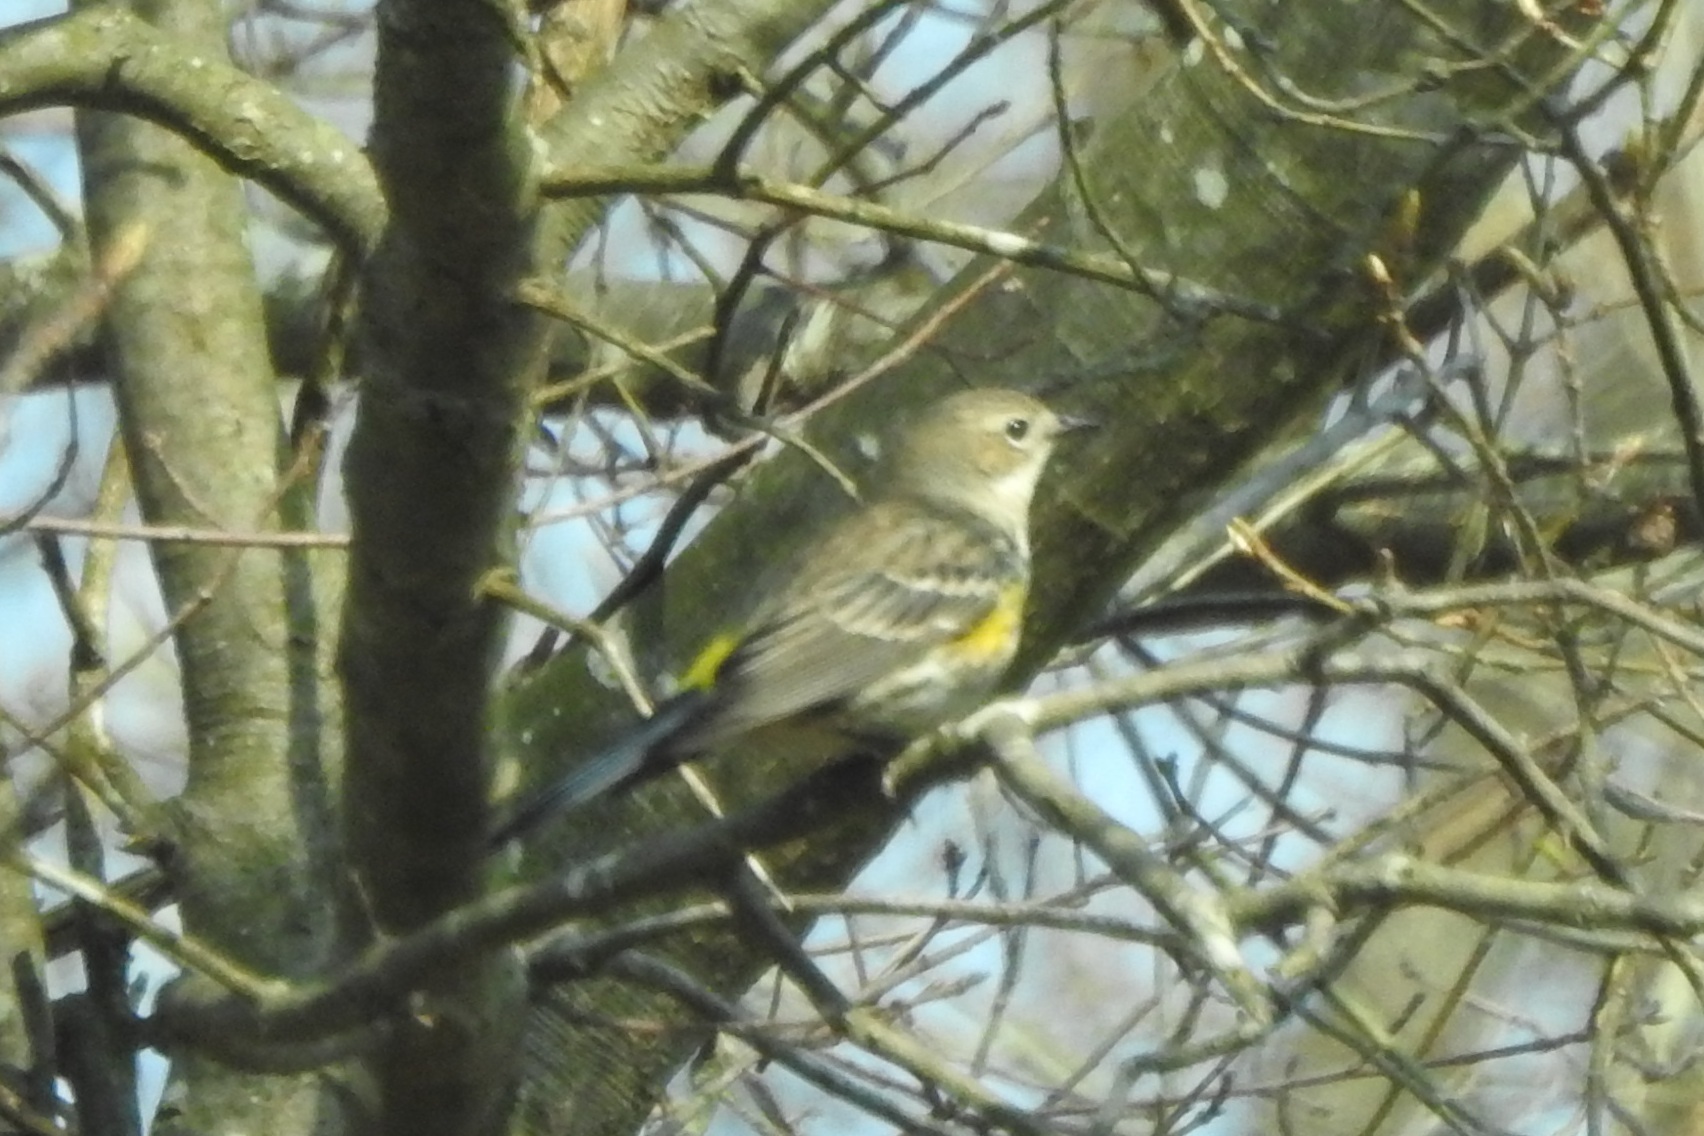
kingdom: Animalia
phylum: Chordata
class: Aves
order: Passeriformes
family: Parulidae
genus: Setophaga
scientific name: Setophaga coronata
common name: Myrtle warbler
